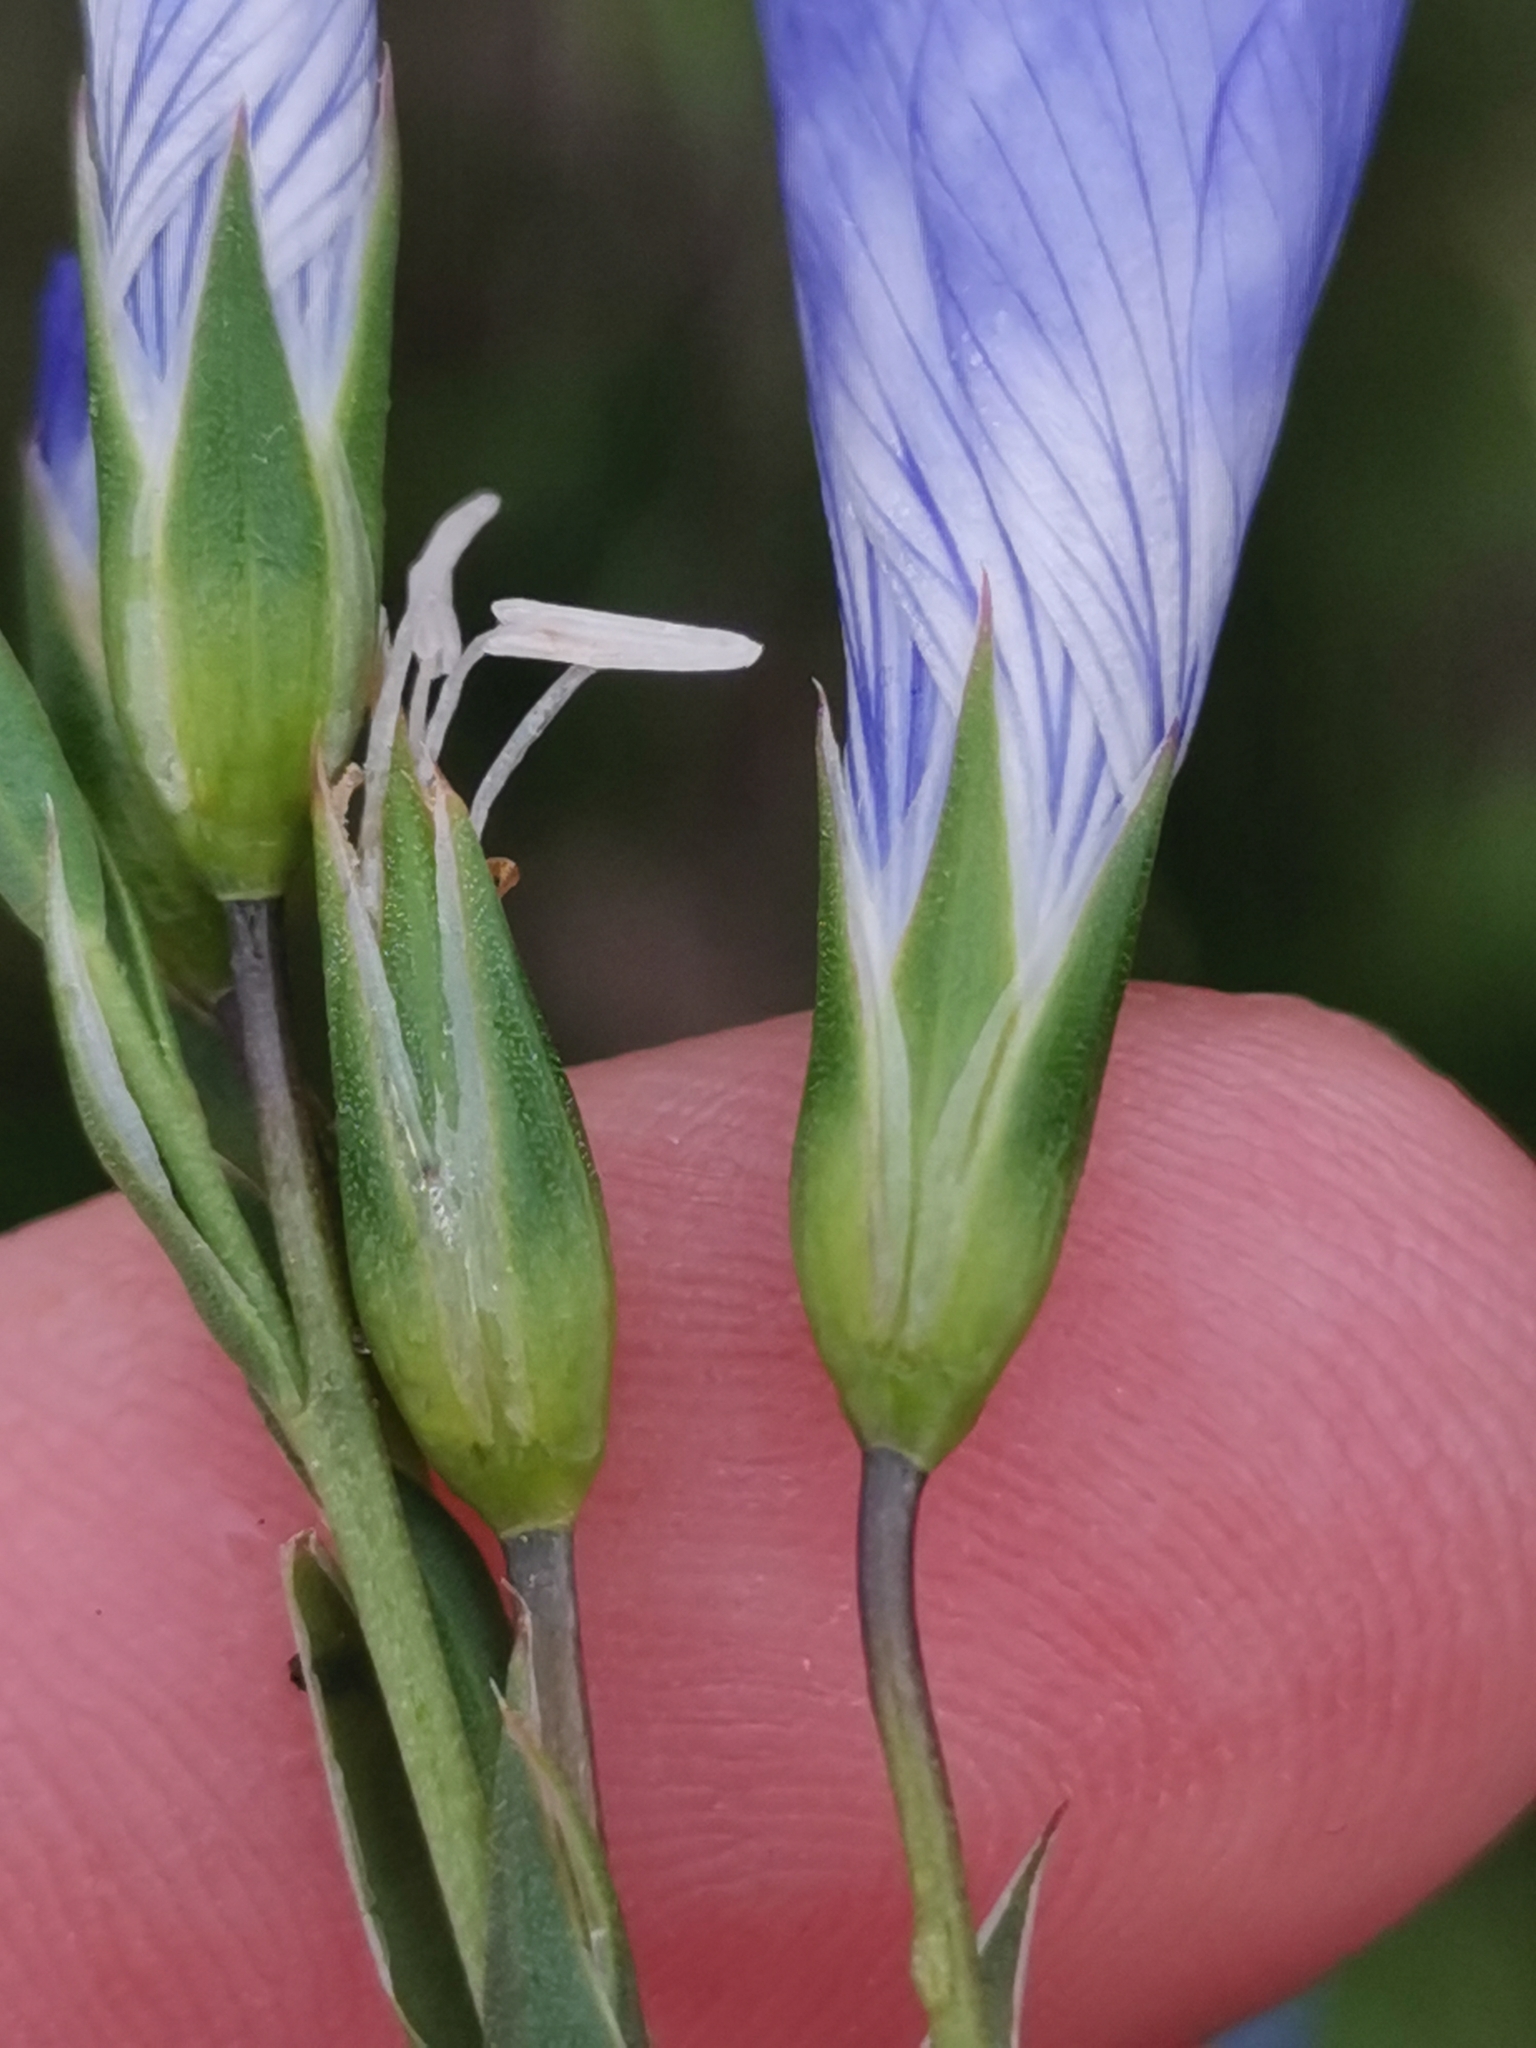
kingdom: Plantae
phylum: Tracheophyta
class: Magnoliopsida
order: Malpighiales
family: Linaceae
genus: Linum
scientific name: Linum narbonense
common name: Flax
